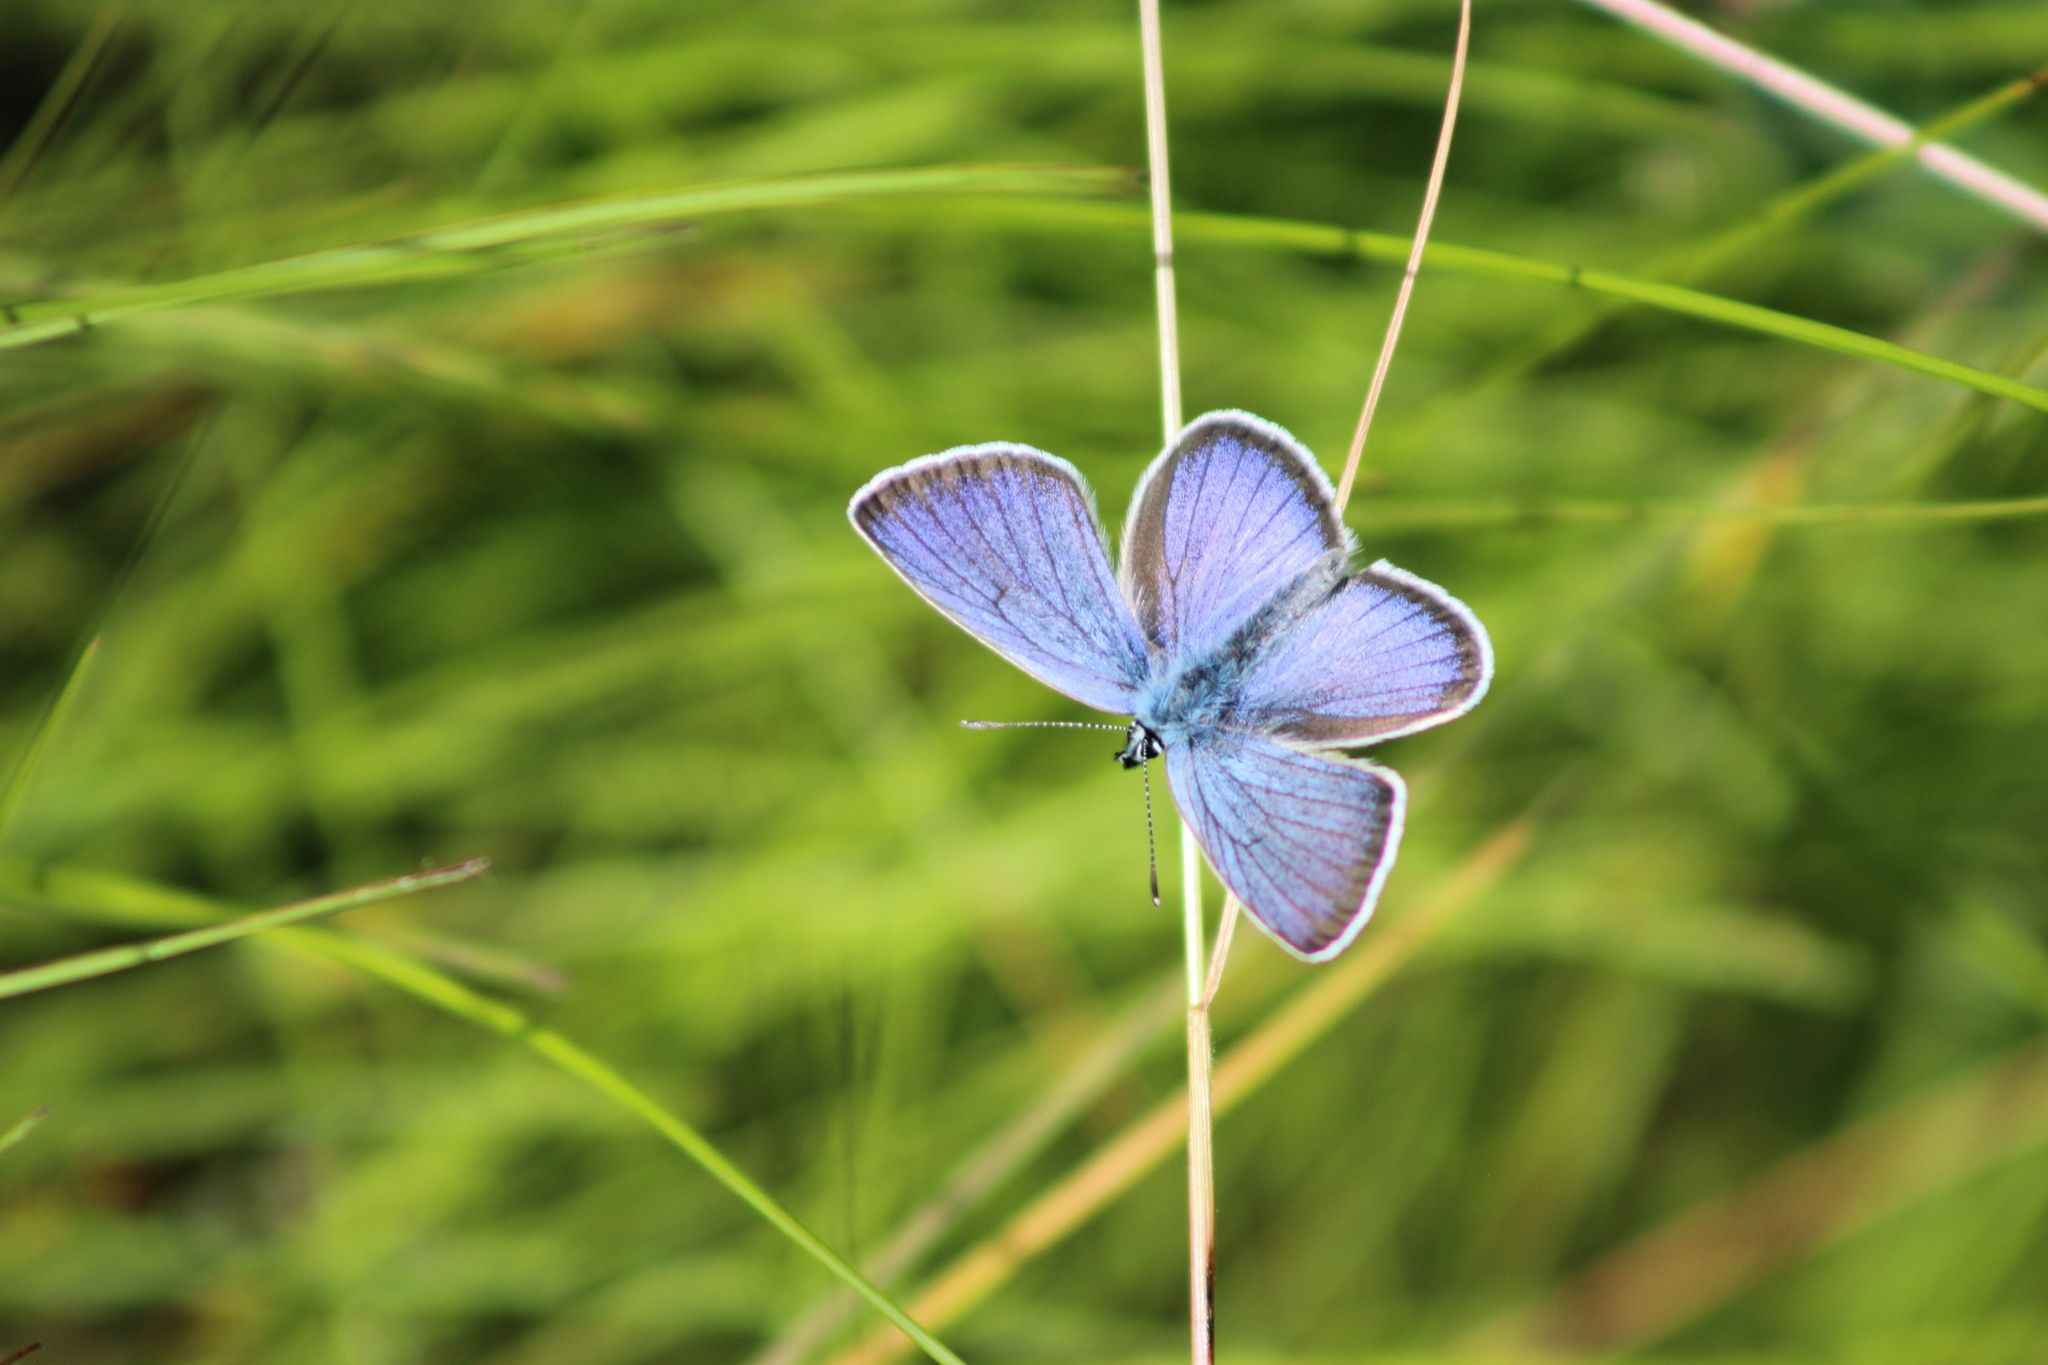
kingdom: Animalia
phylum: Arthropoda
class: Insecta
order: Lepidoptera
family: Lycaenidae
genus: Cyaniris
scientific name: Cyaniris semiargus
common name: Mazarine blue
